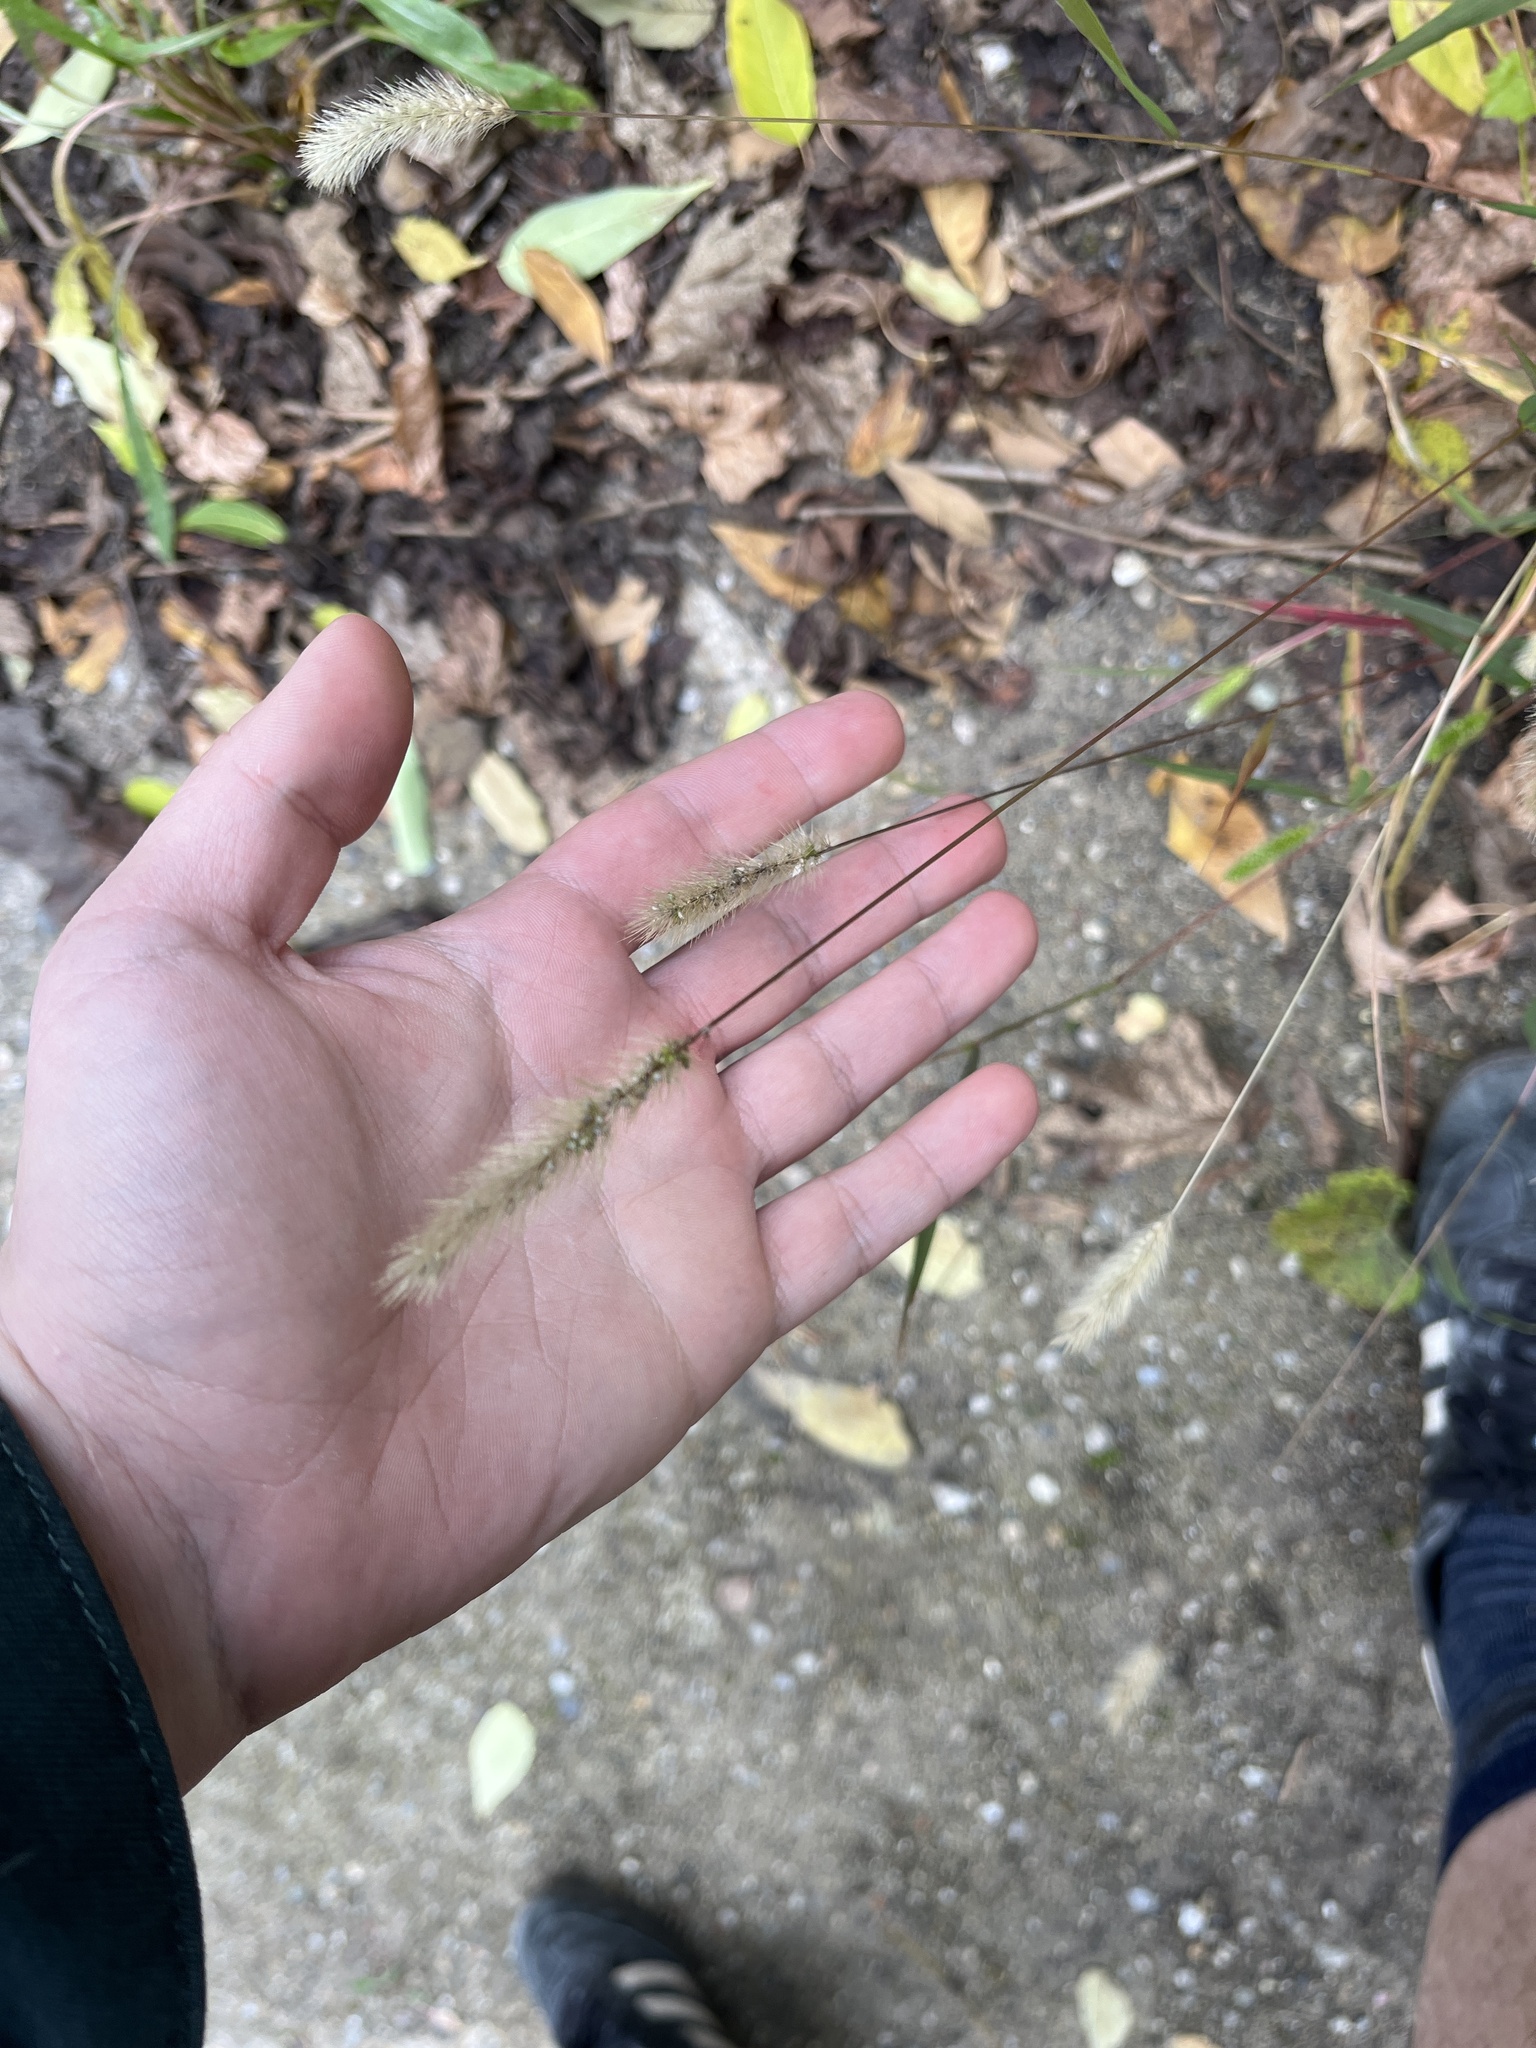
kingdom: Plantae
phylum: Tracheophyta
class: Liliopsida
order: Poales
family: Poaceae
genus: Setaria
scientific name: Setaria viridis
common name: Green bristlegrass
